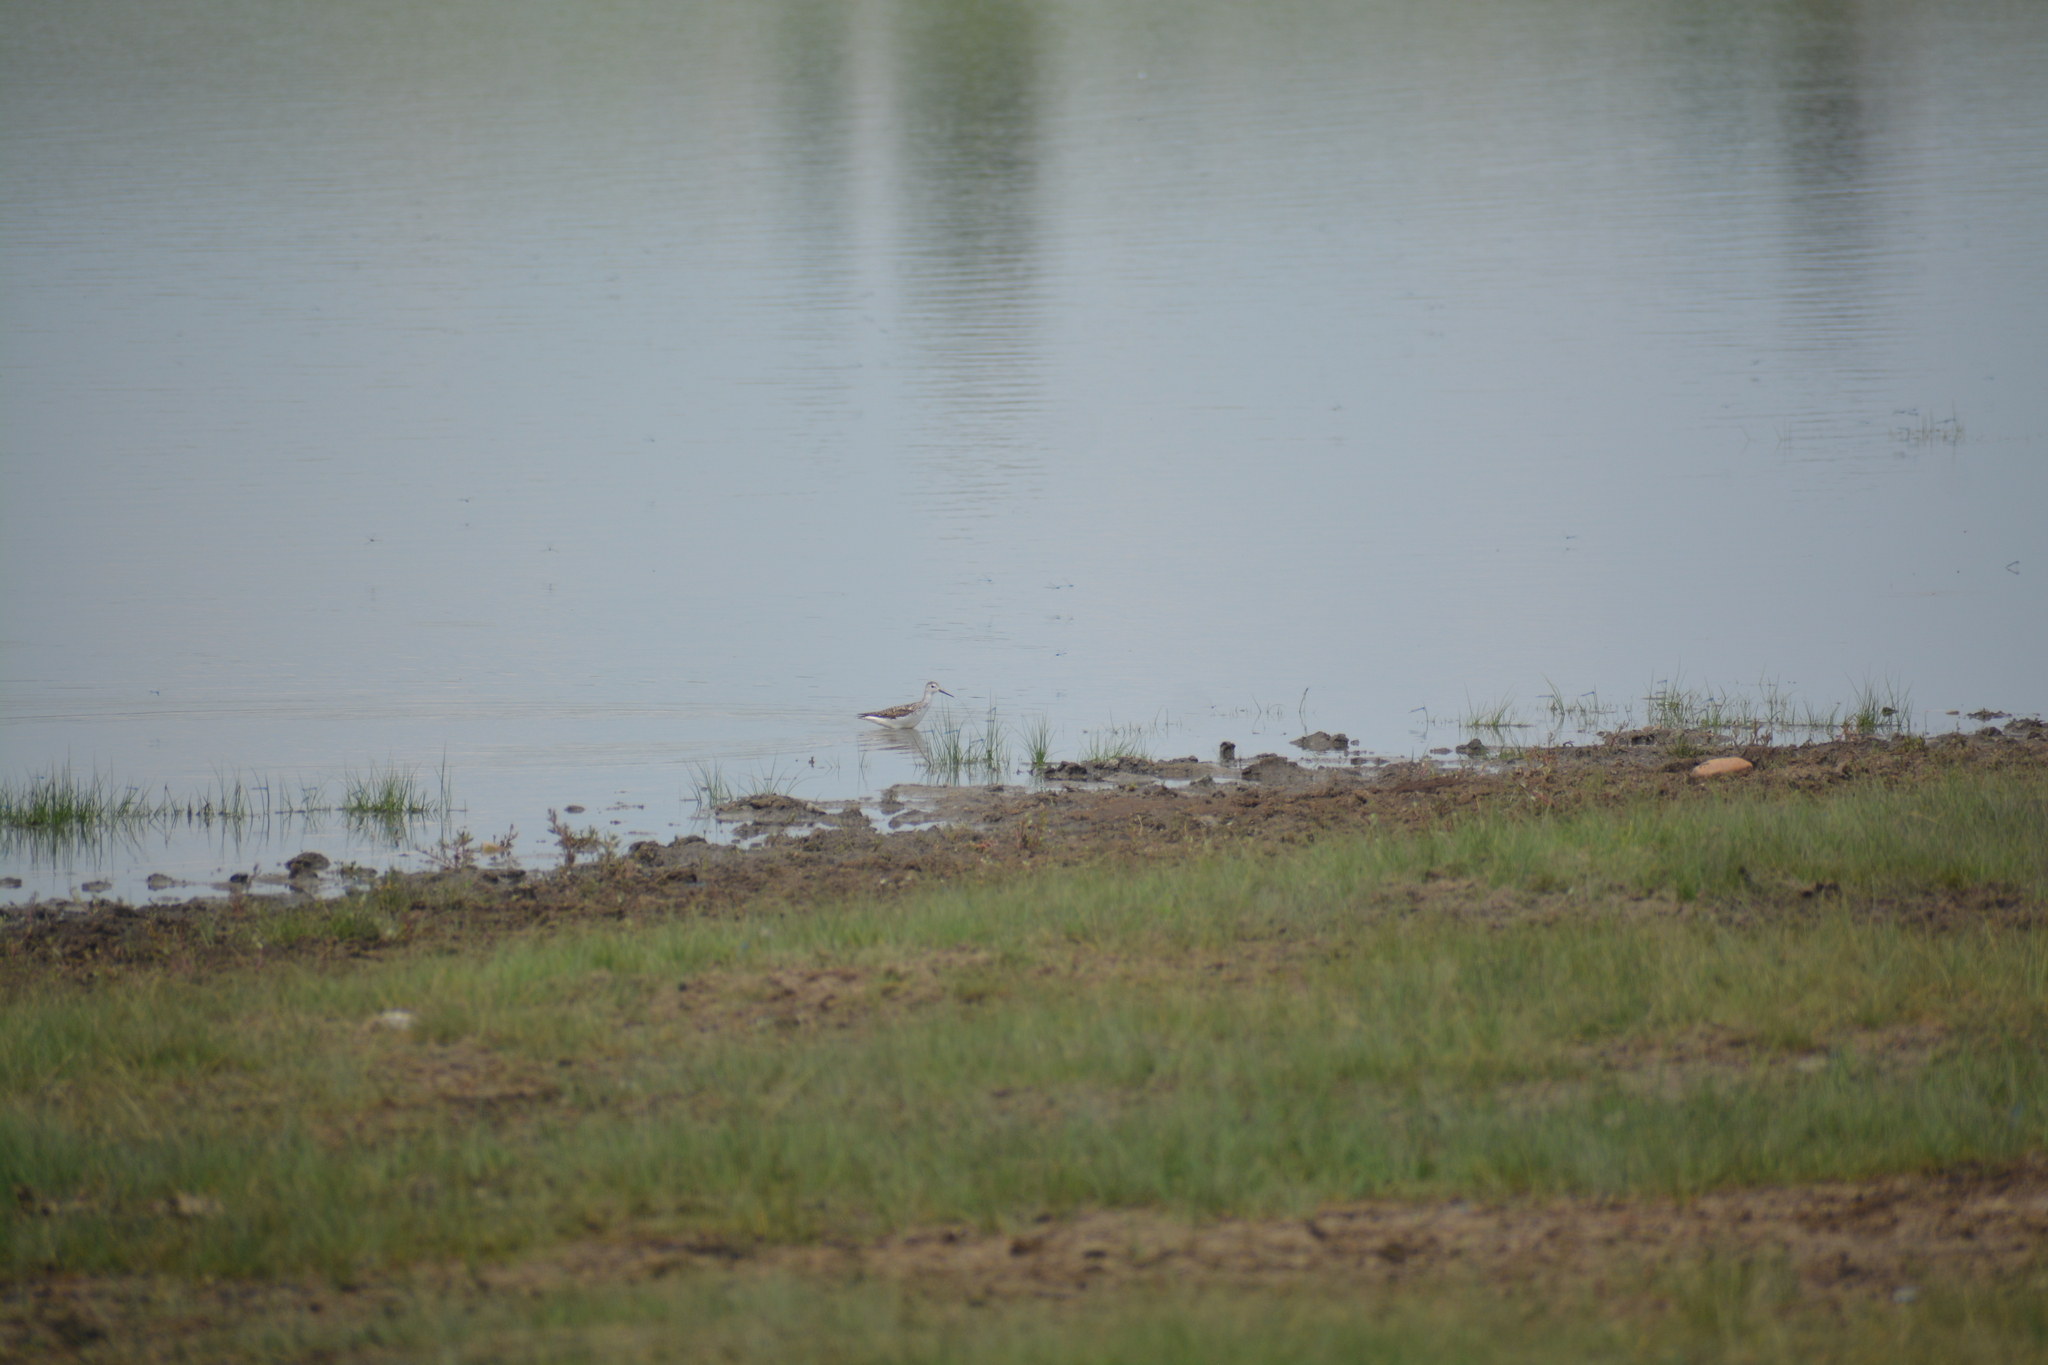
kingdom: Animalia
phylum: Chordata
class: Aves
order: Charadriiformes
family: Scolopacidae
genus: Tringa
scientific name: Tringa stagnatilis
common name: Marsh sandpiper
